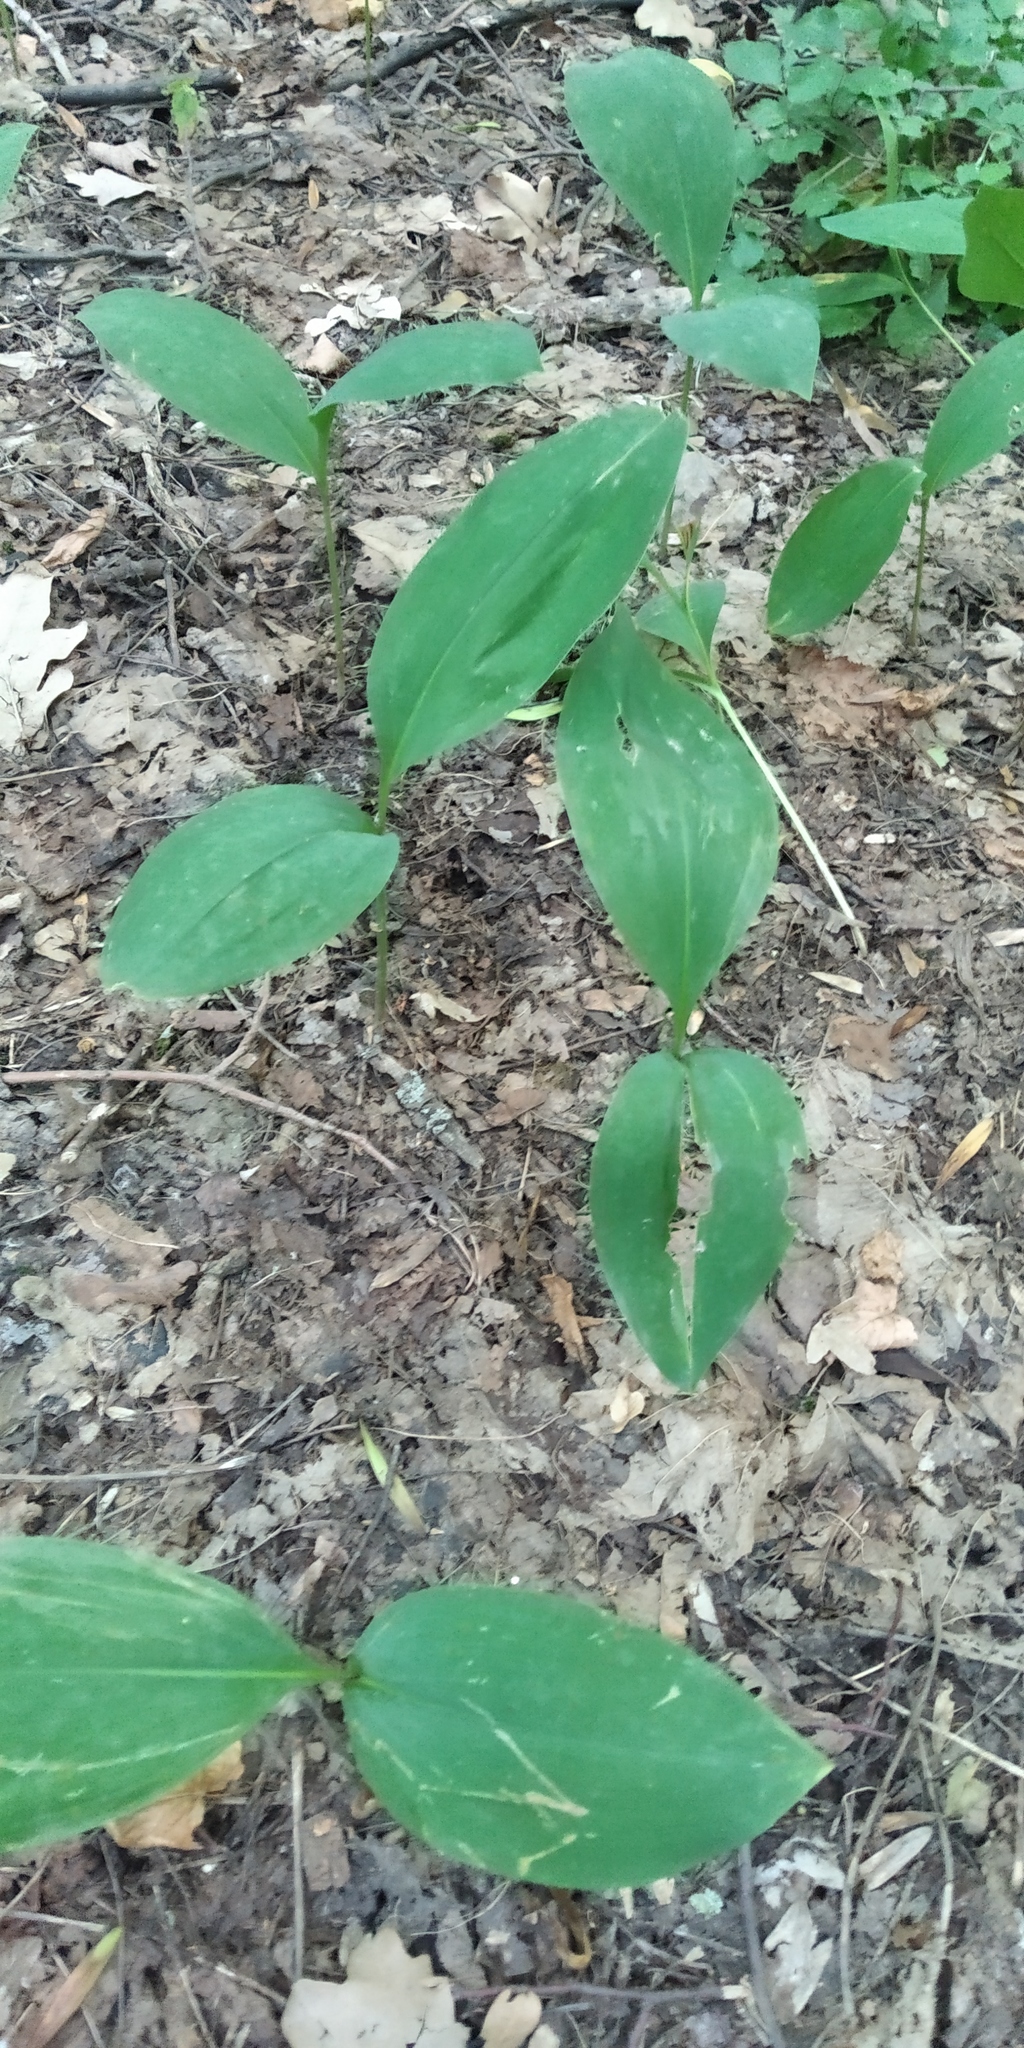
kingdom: Plantae
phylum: Tracheophyta
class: Liliopsida
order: Asparagales
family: Asparagaceae
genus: Convallaria
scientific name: Convallaria majalis
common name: Lily-of-the-valley
